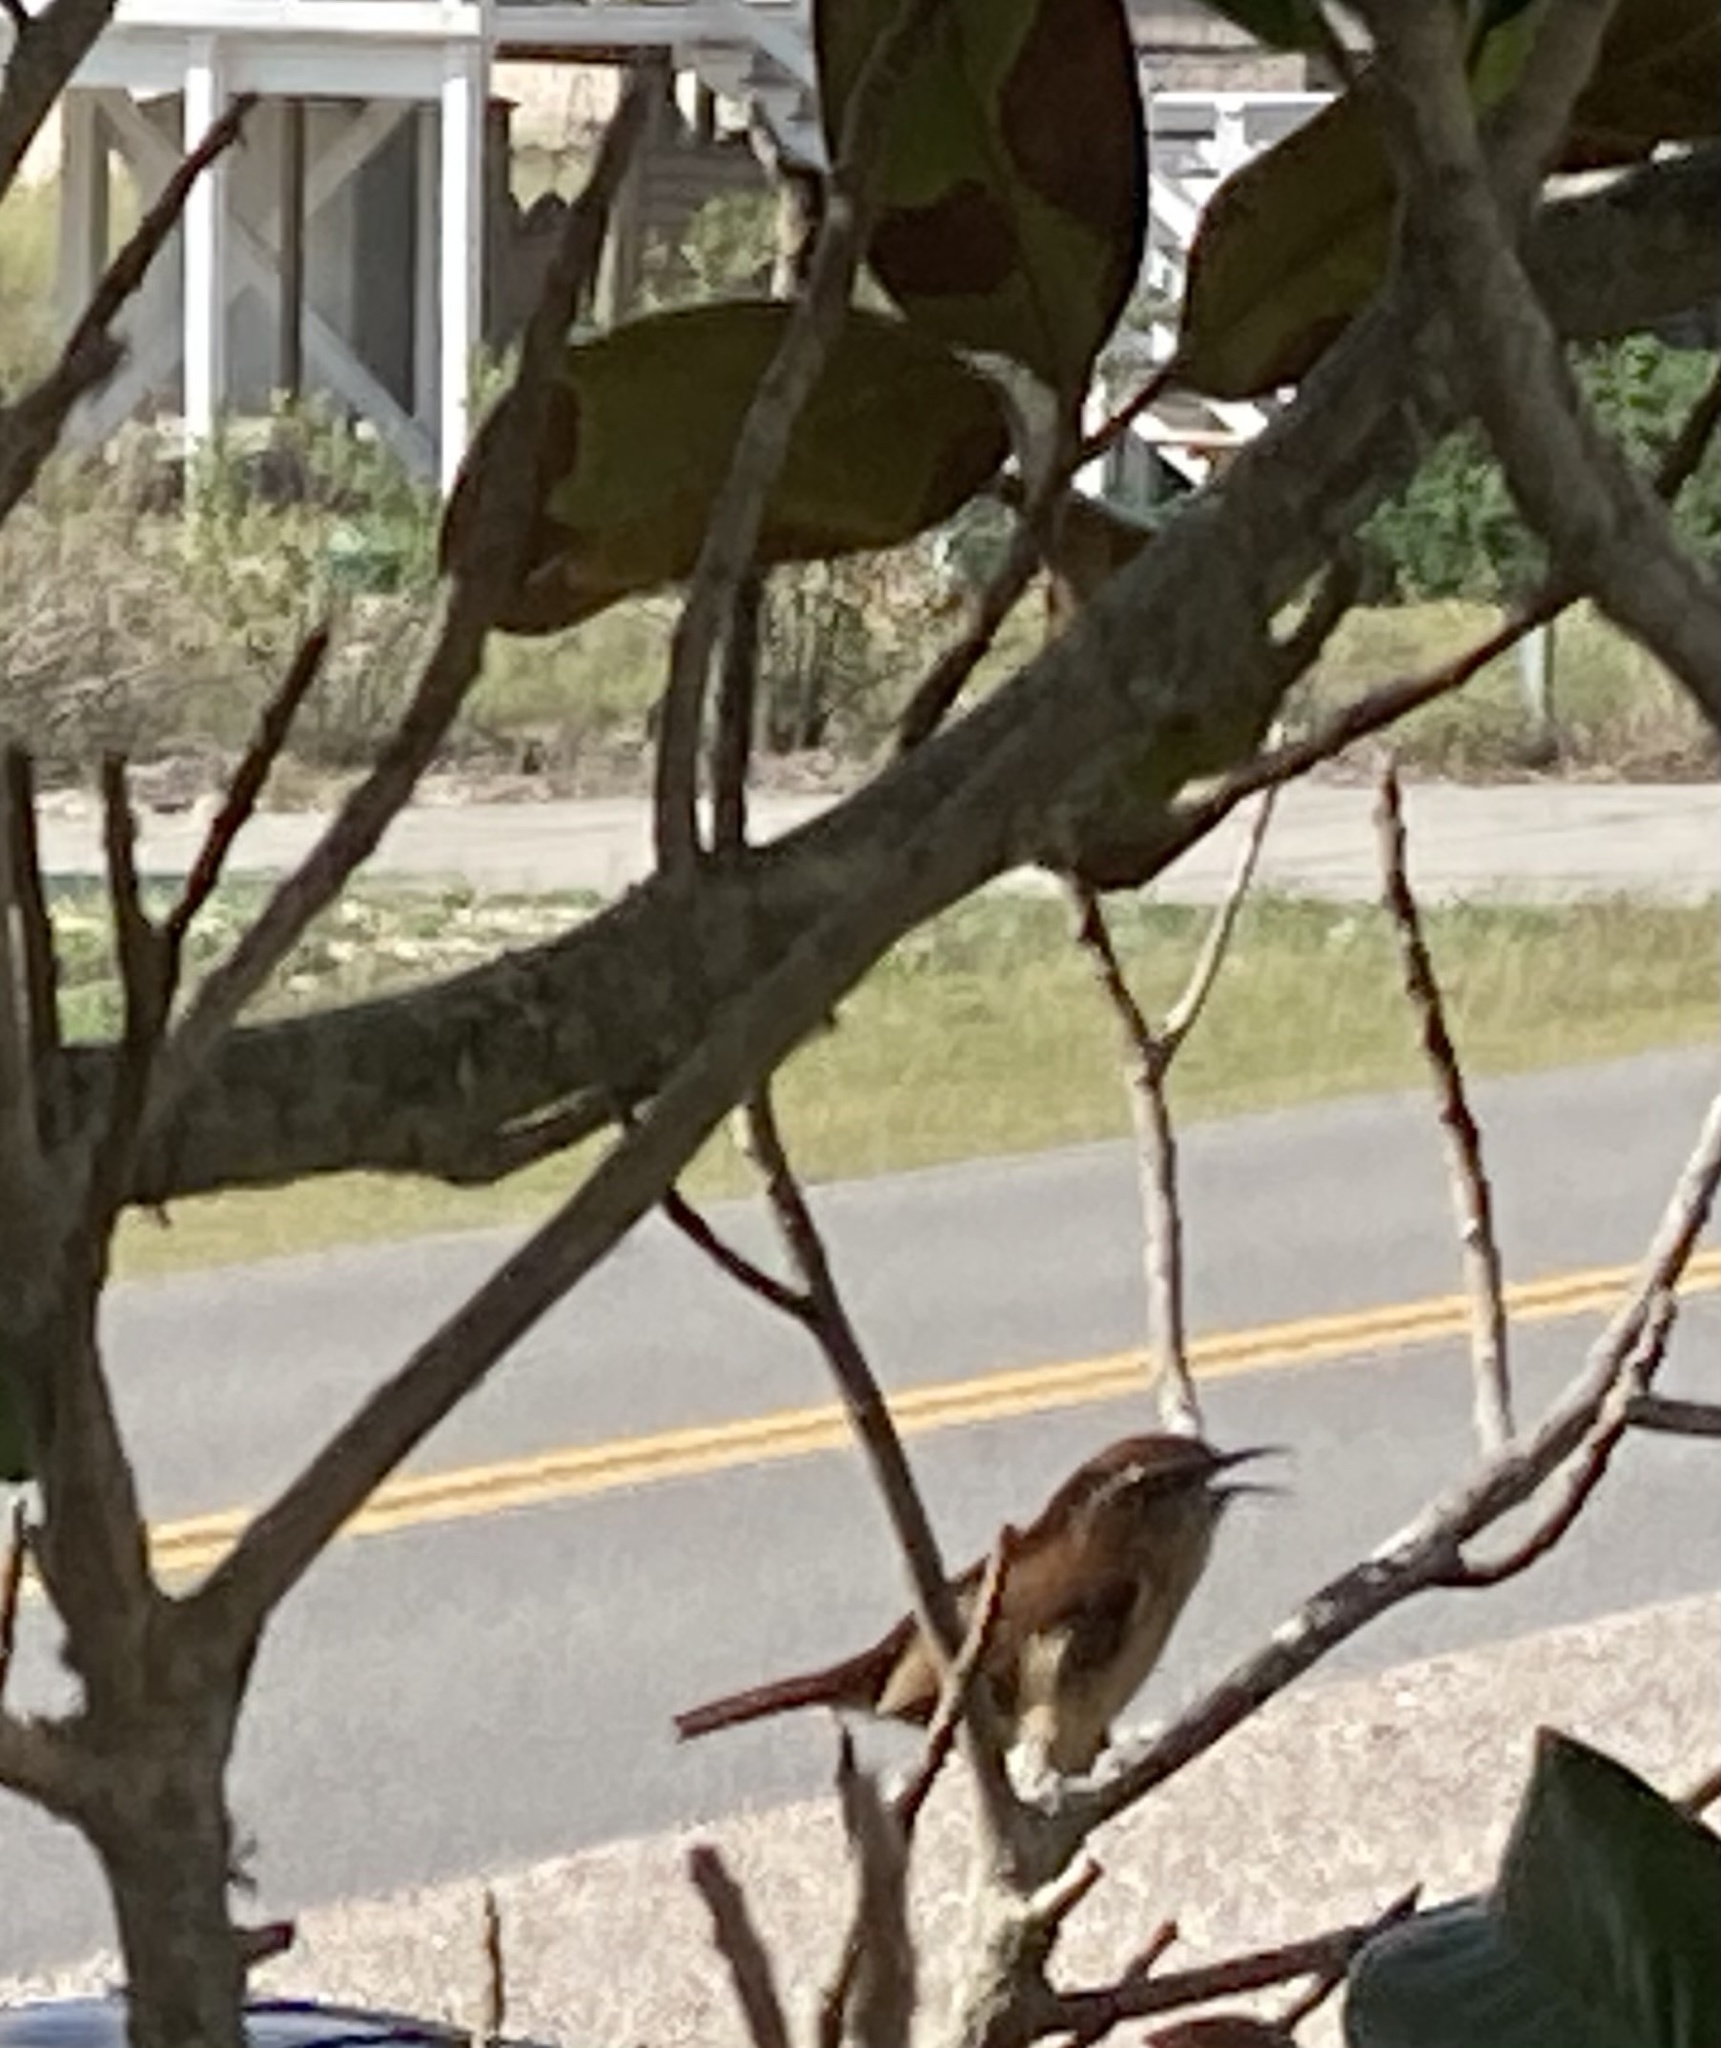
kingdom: Animalia
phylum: Chordata
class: Aves
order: Passeriformes
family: Troglodytidae
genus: Thryothorus
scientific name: Thryothorus ludovicianus
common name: Carolina wren
